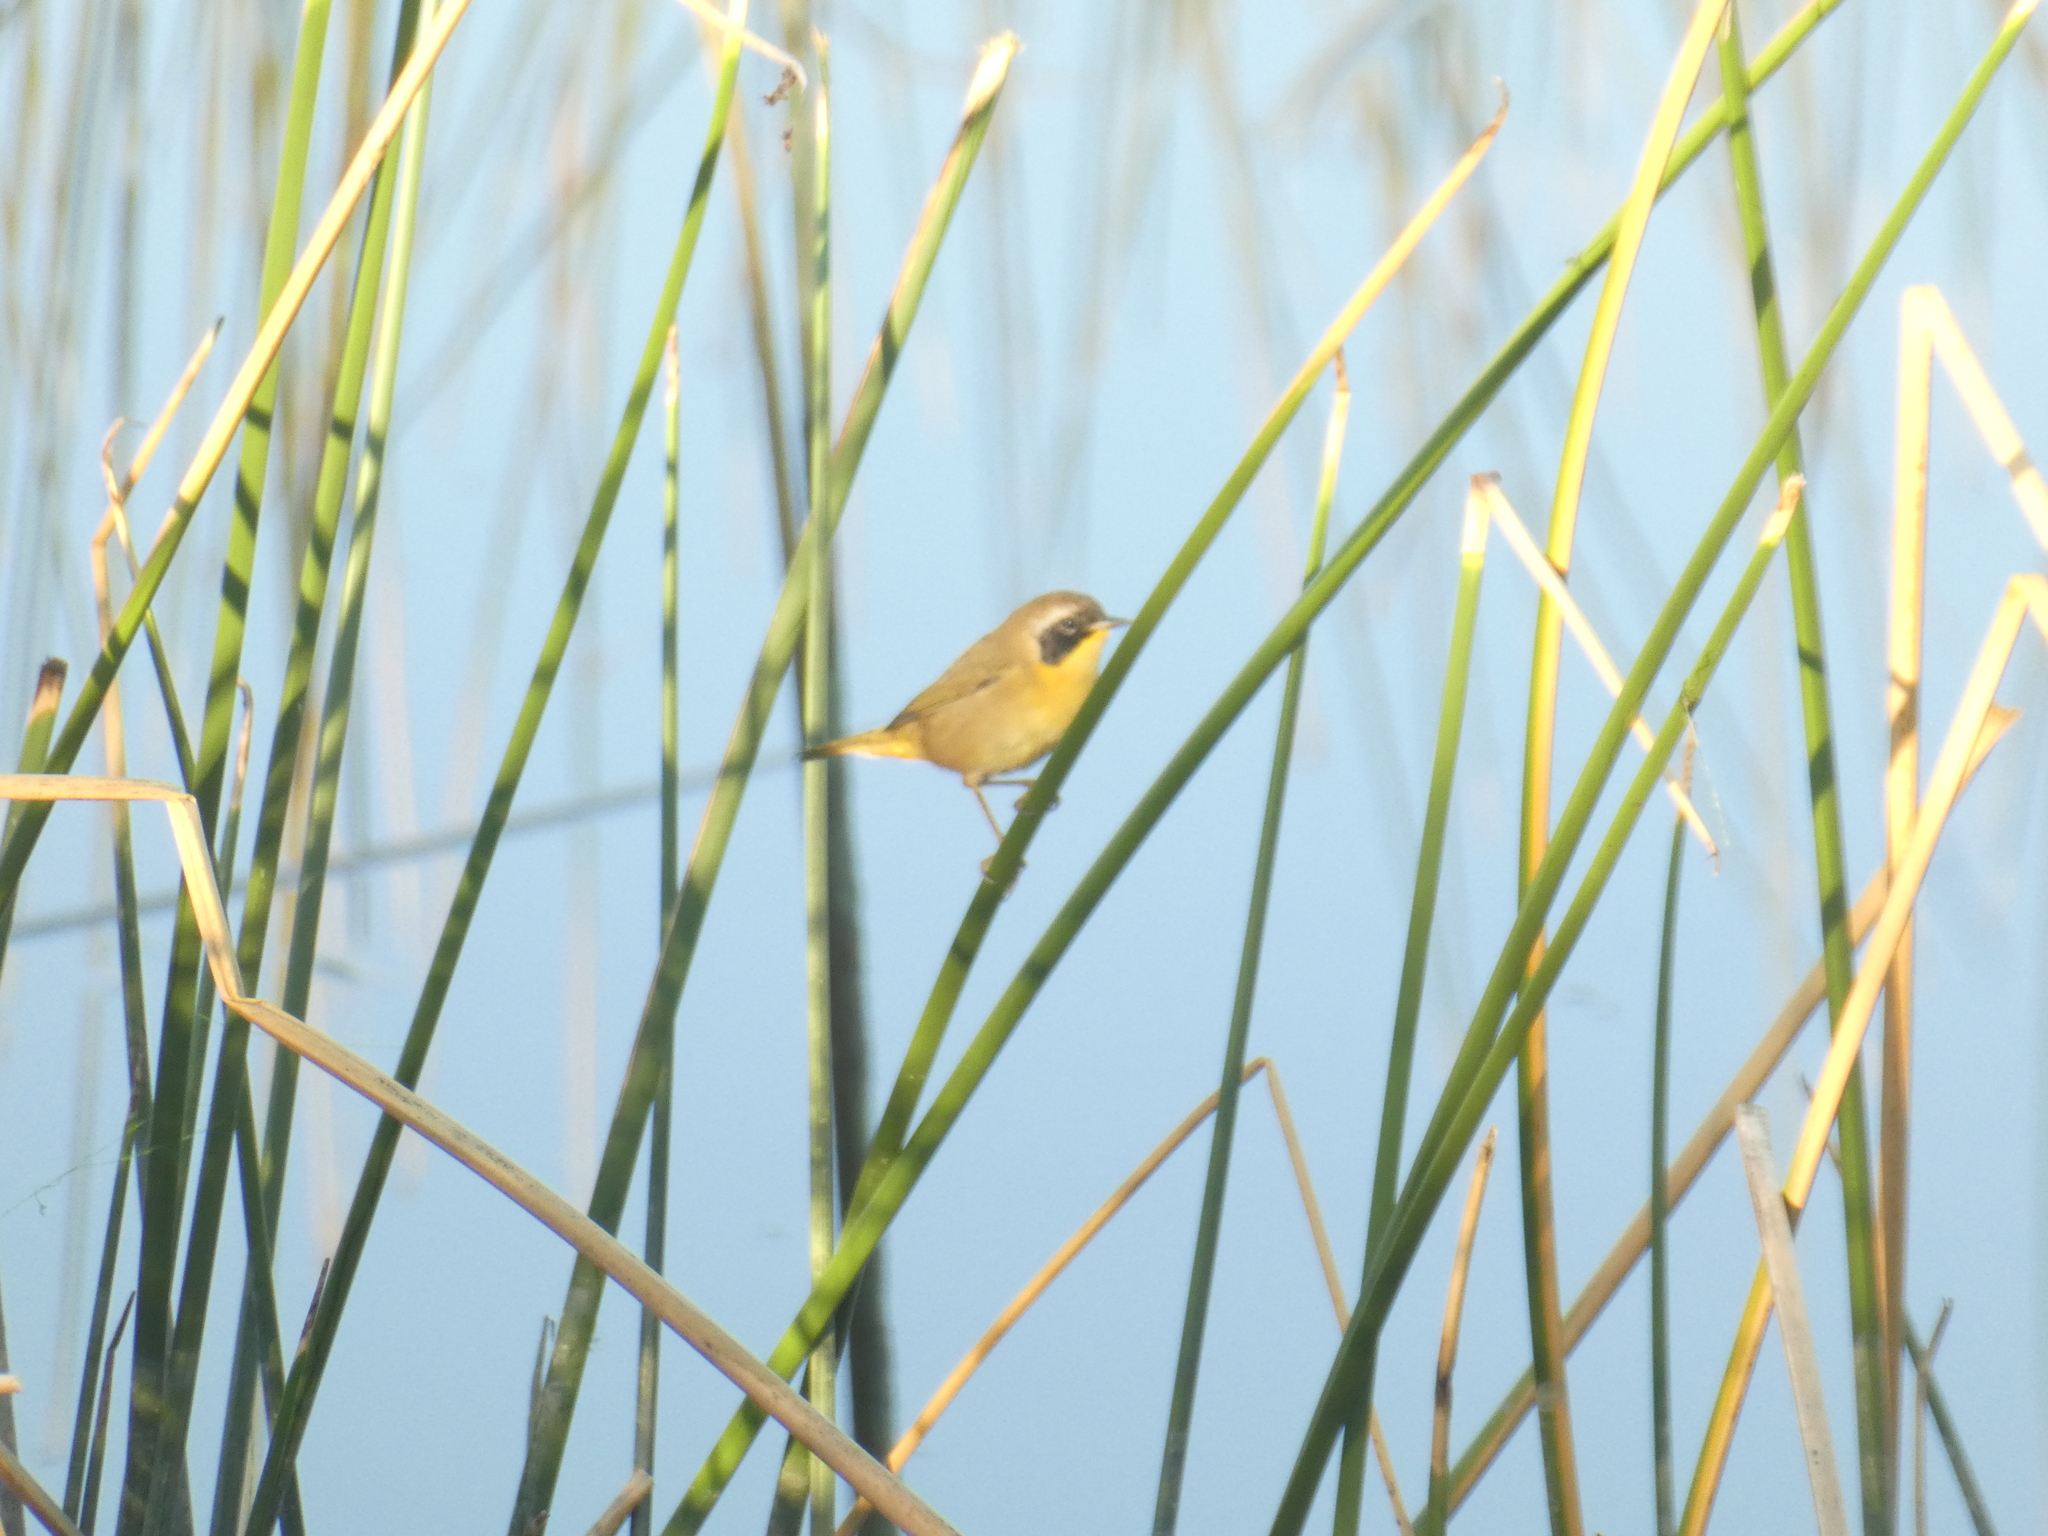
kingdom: Animalia
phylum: Chordata
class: Aves
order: Passeriformes
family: Parulidae
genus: Geothlypis
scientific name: Geothlypis trichas
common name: Common yellowthroat
